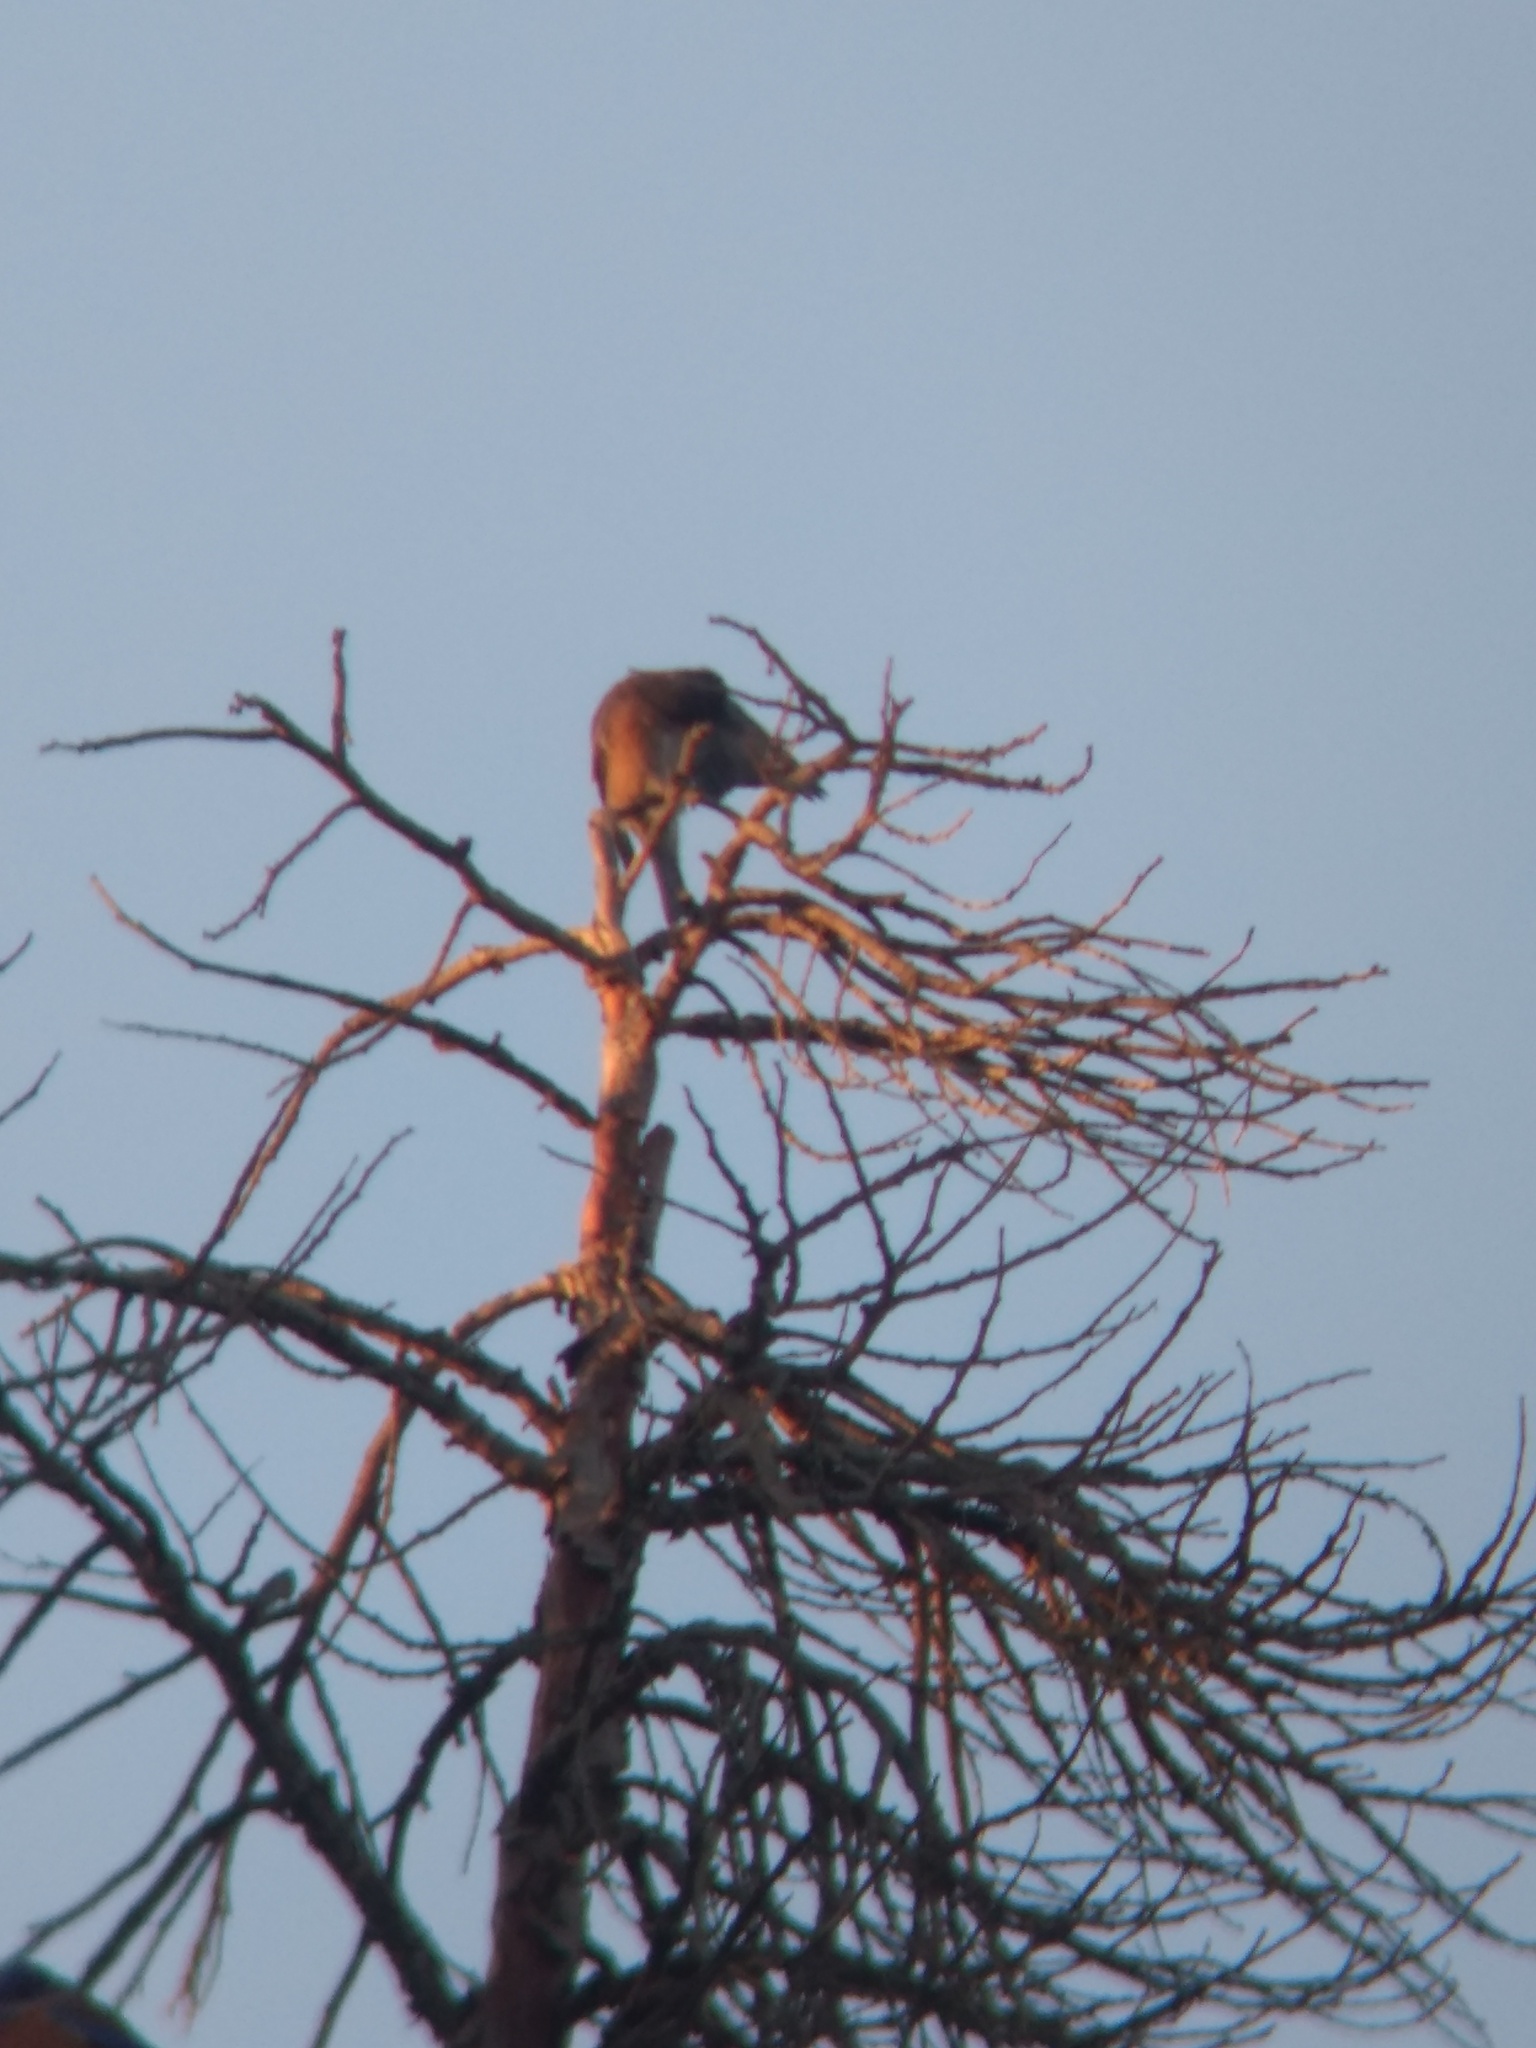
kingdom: Animalia
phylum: Chordata
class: Aves
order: Passeriformes
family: Mimidae
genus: Mimus
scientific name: Mimus polyglottos
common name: Northern mockingbird
